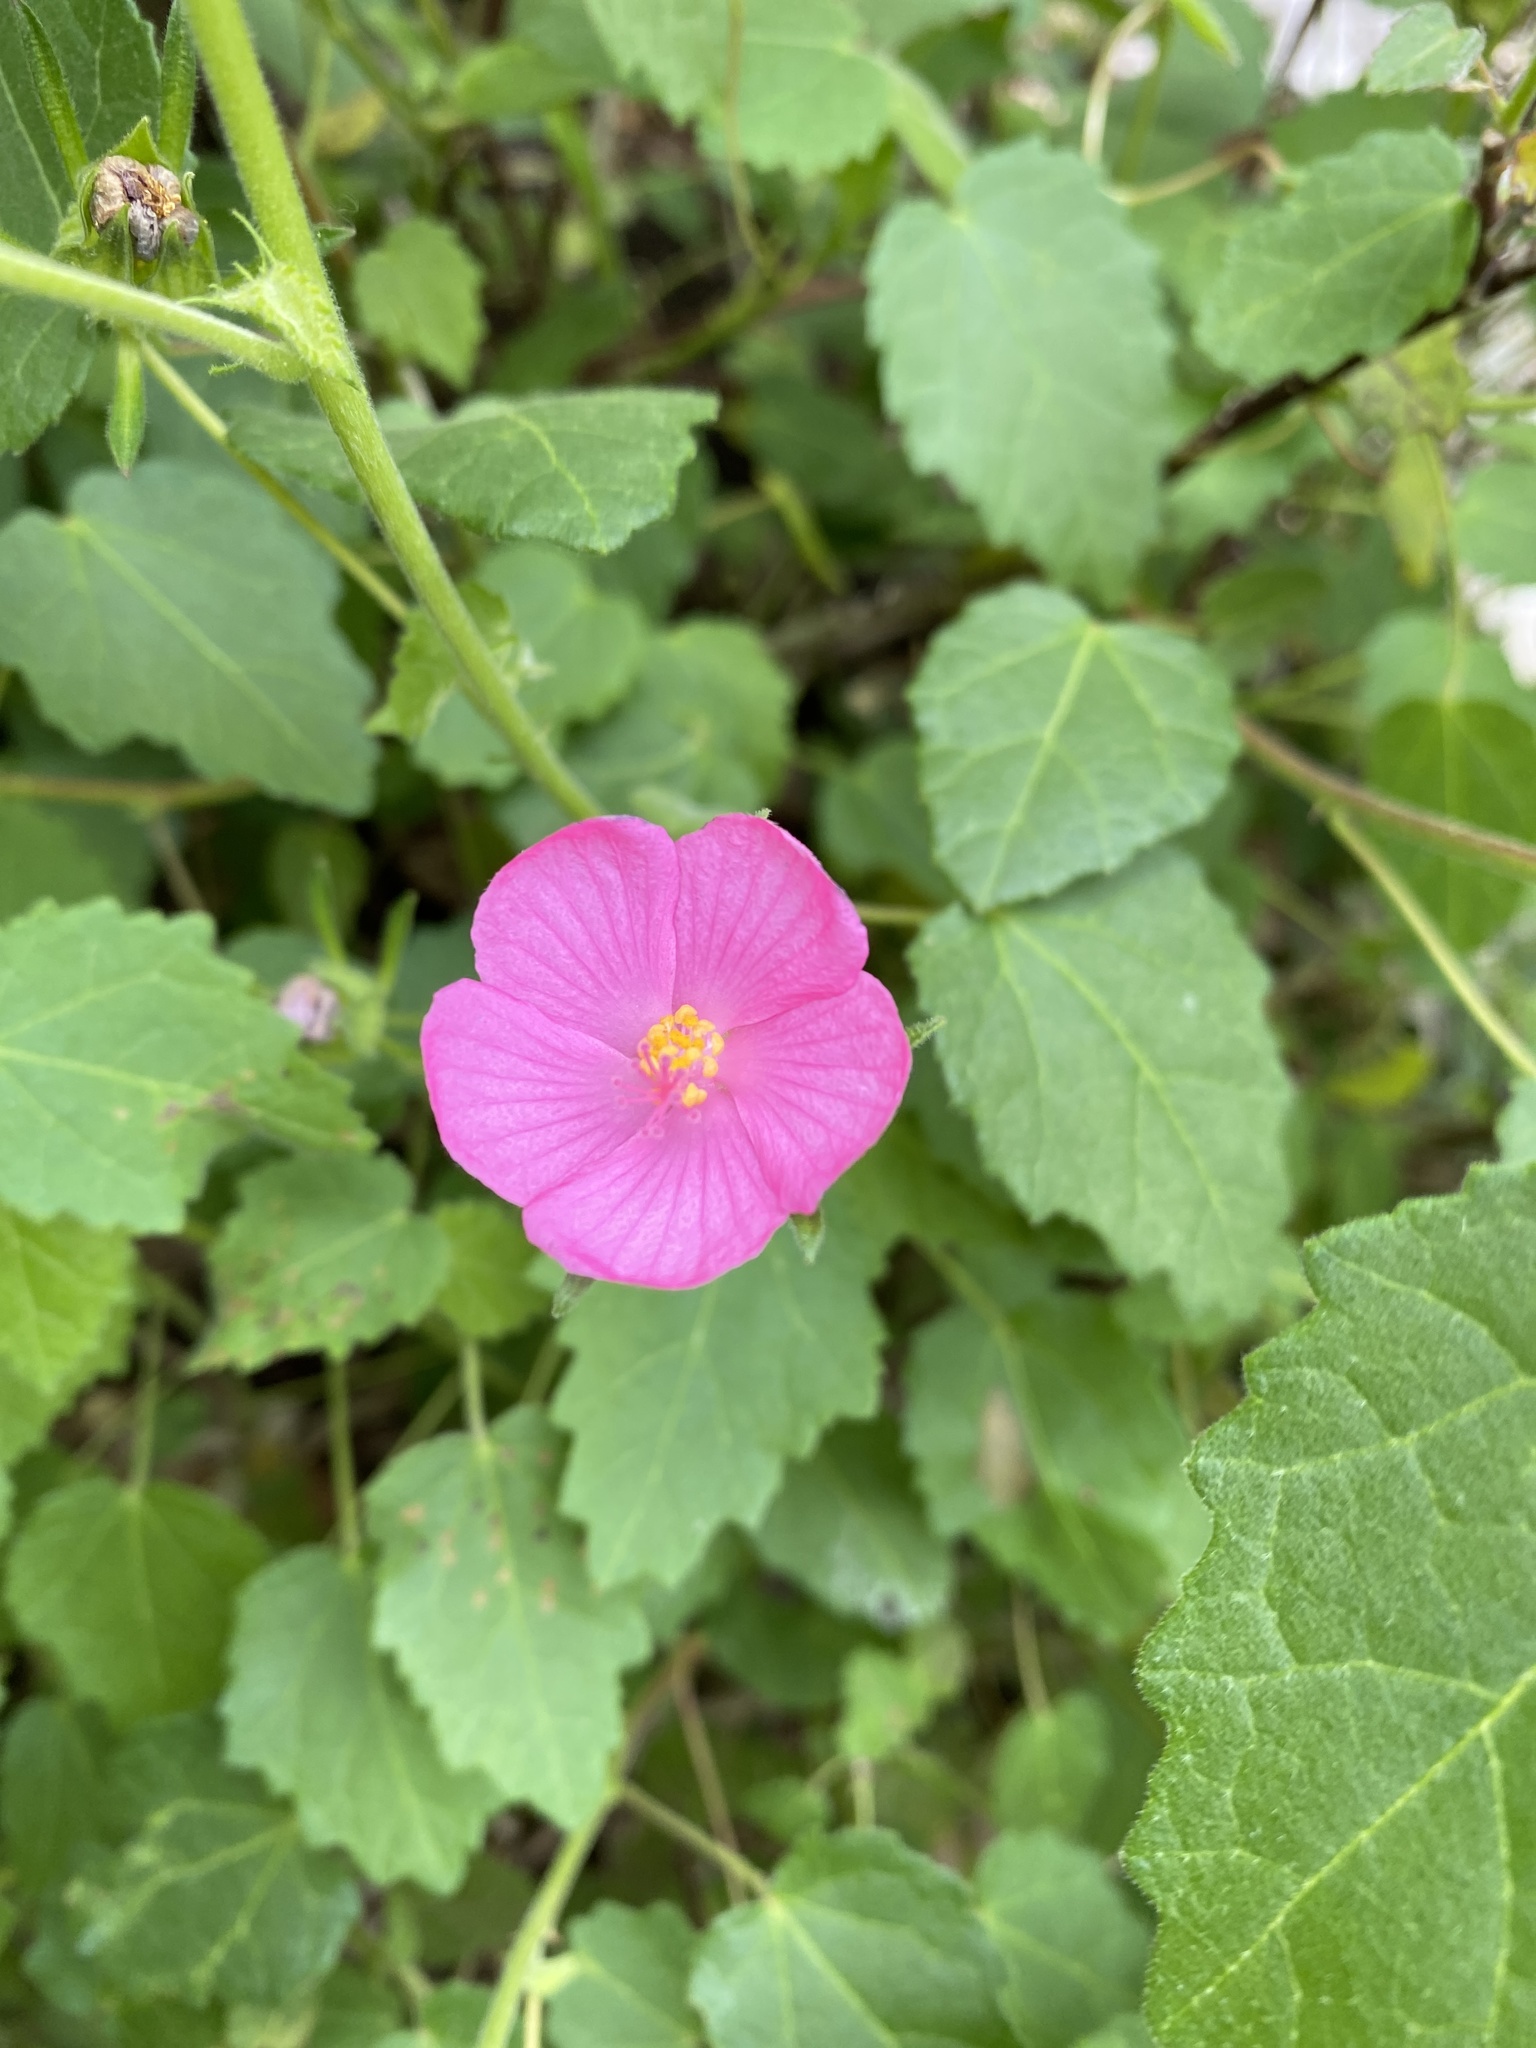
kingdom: Plantae
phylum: Tracheophyta
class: Magnoliopsida
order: Malvales
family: Malvaceae
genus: Pavonia
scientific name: Pavonia lasiopetala
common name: Texas swamp-mallow
